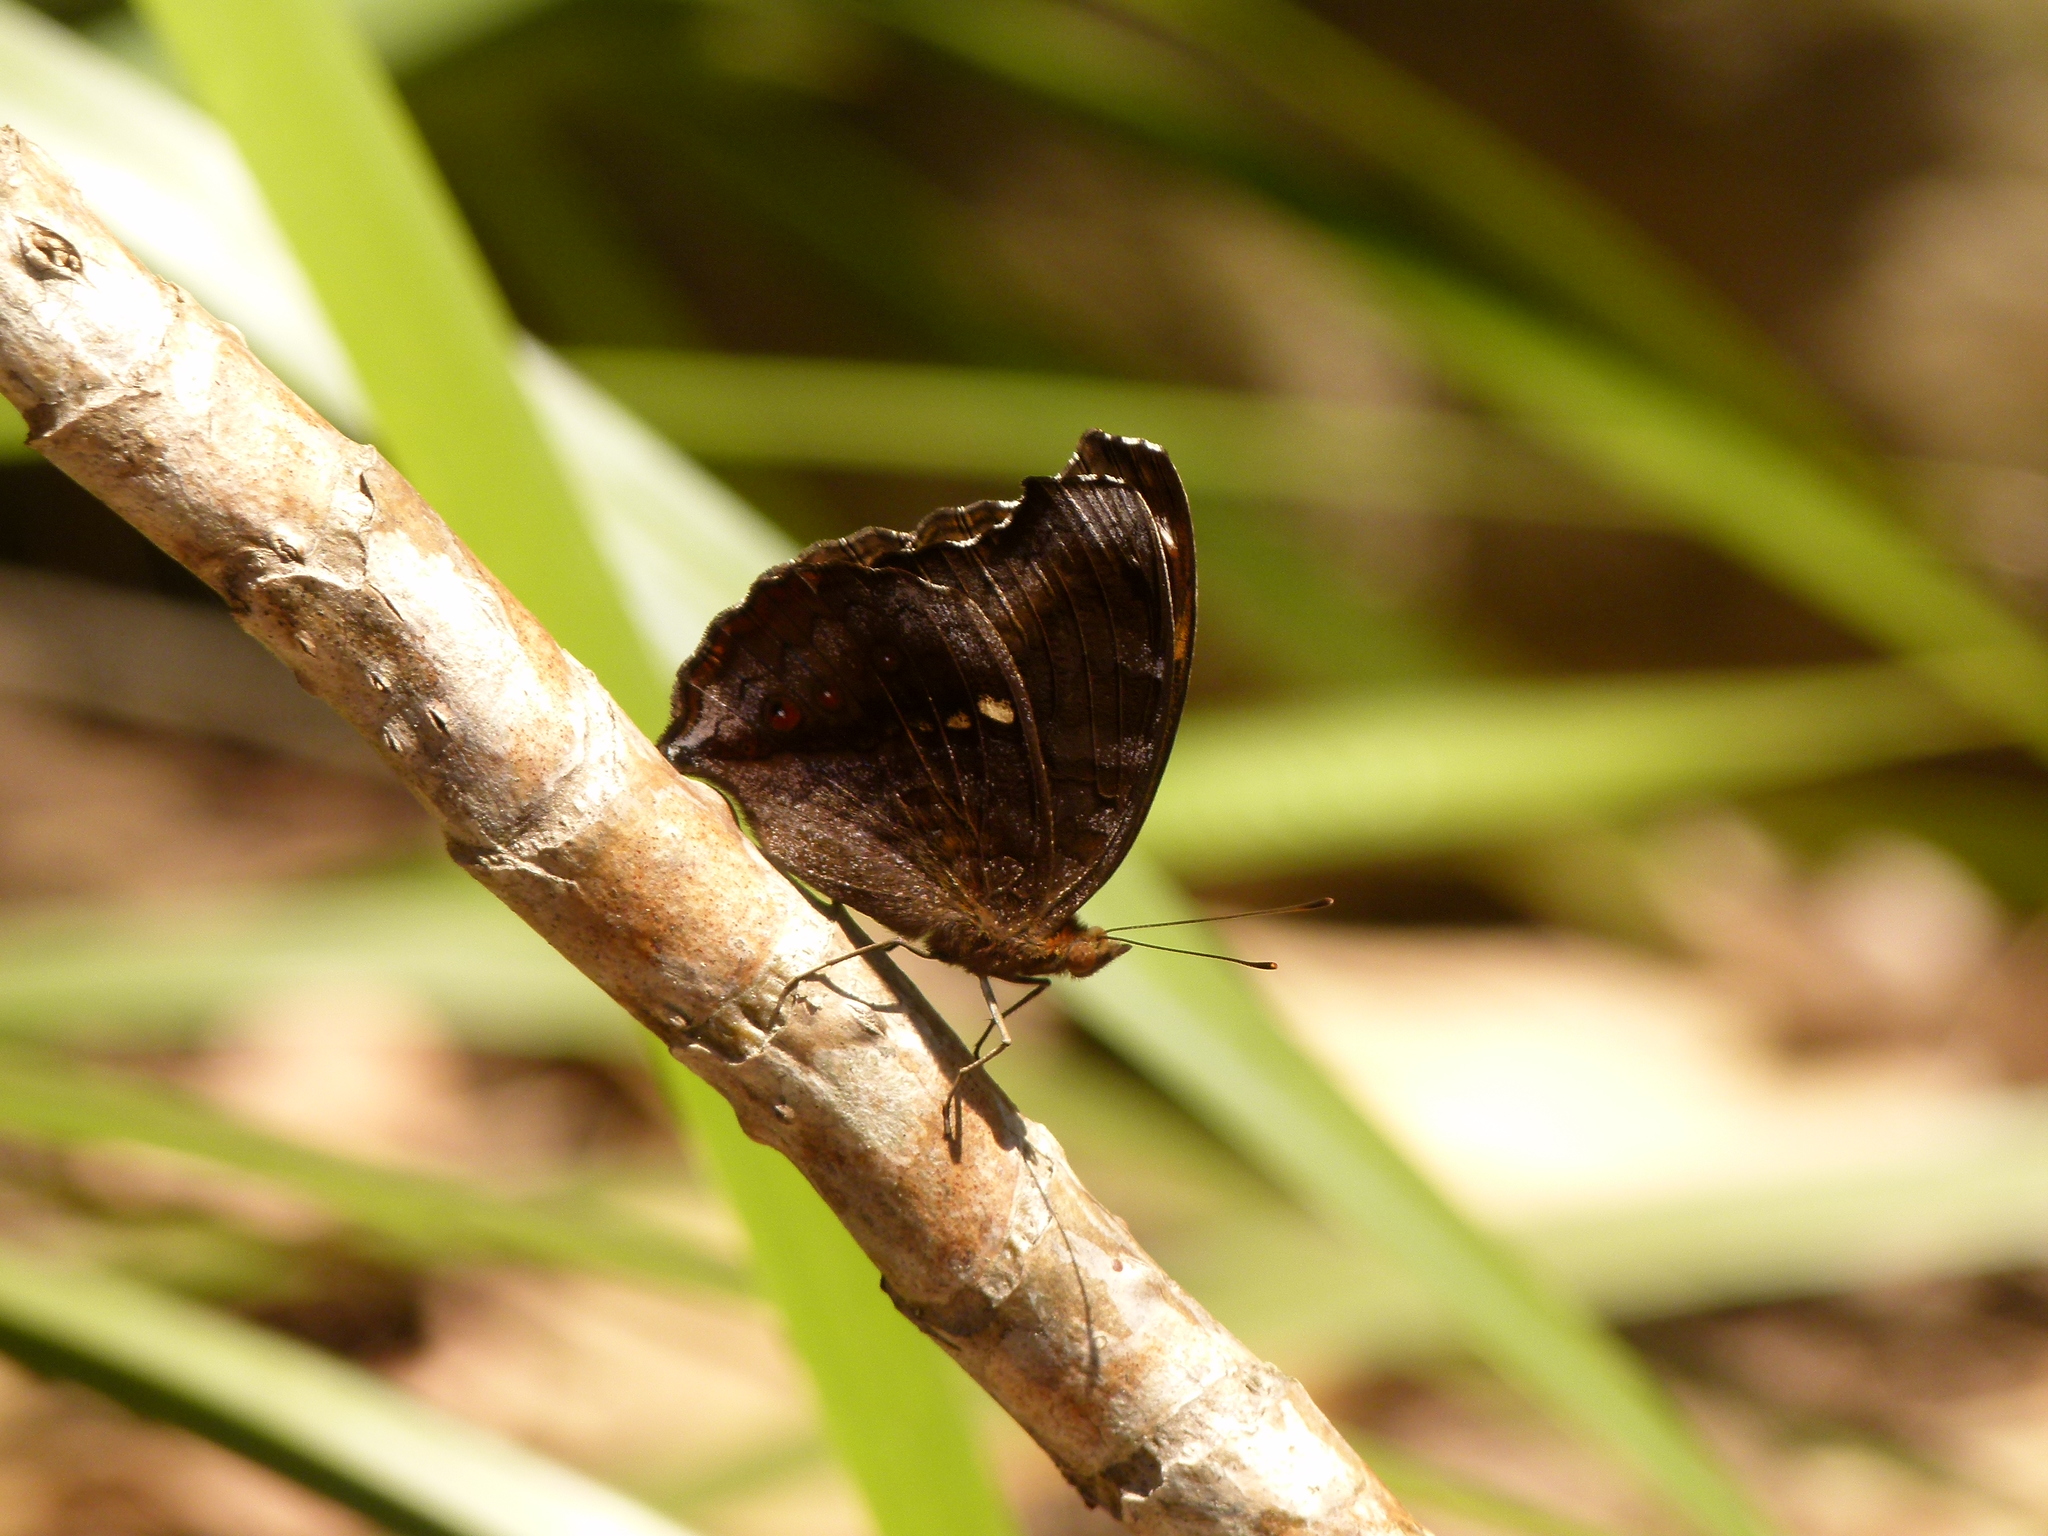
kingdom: Animalia
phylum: Arthropoda
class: Insecta
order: Lepidoptera
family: Nymphalidae
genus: Junonia
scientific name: Junonia hedonia
